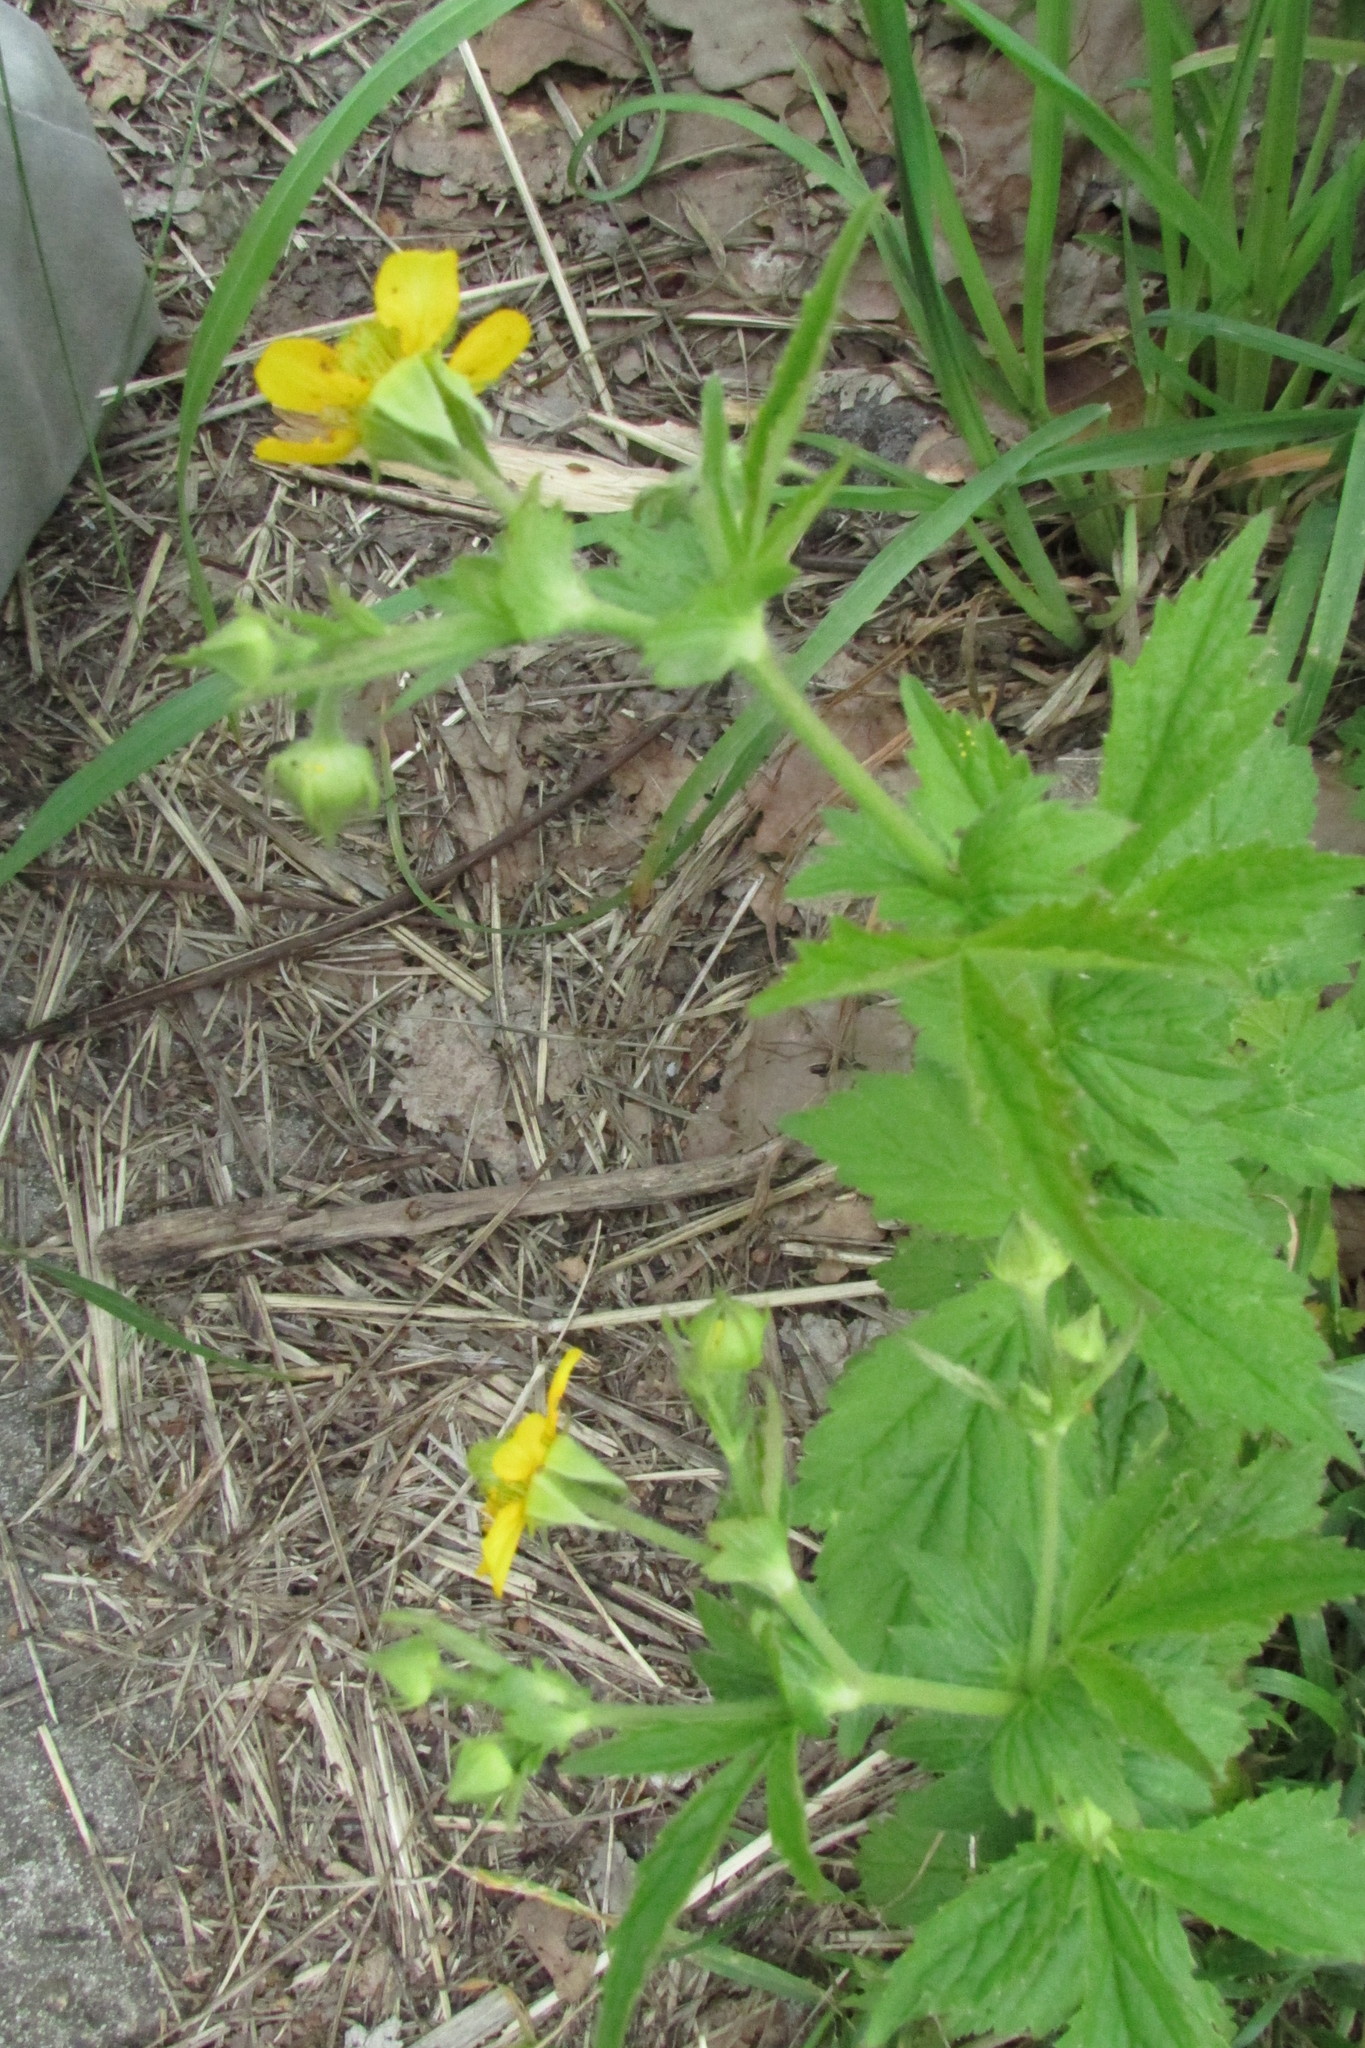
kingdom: Plantae
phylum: Tracheophyta
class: Magnoliopsida
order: Rosales
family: Rosaceae
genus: Geum
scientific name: Geum aleppicum
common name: Yellow avens
